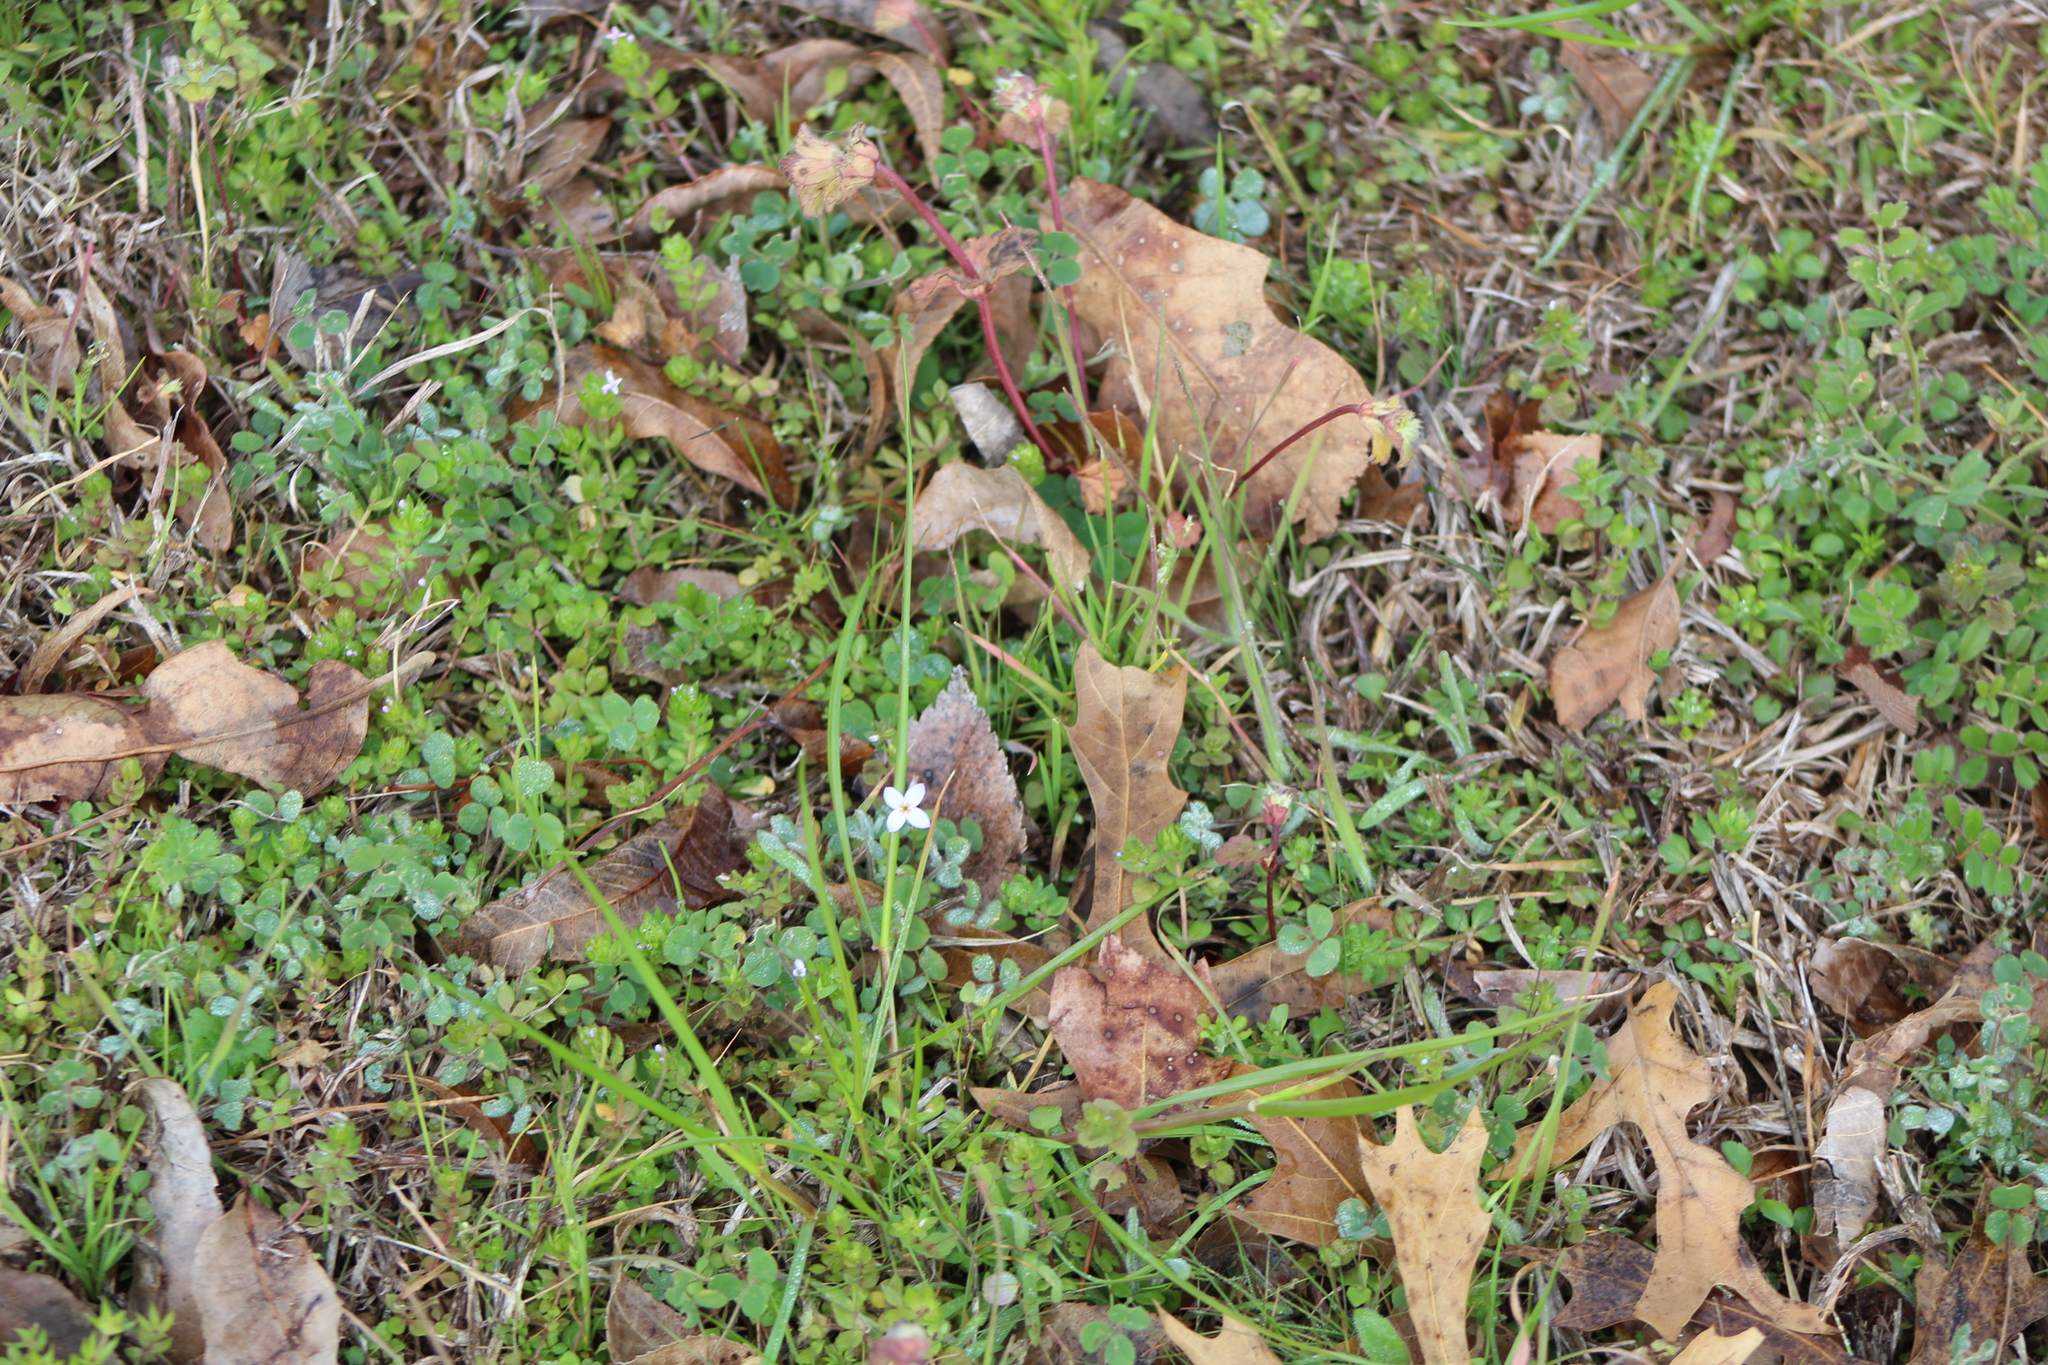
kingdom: Plantae
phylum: Tracheophyta
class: Magnoliopsida
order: Gentianales
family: Rubiaceae
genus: Houstonia
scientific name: Houstonia pusilla
